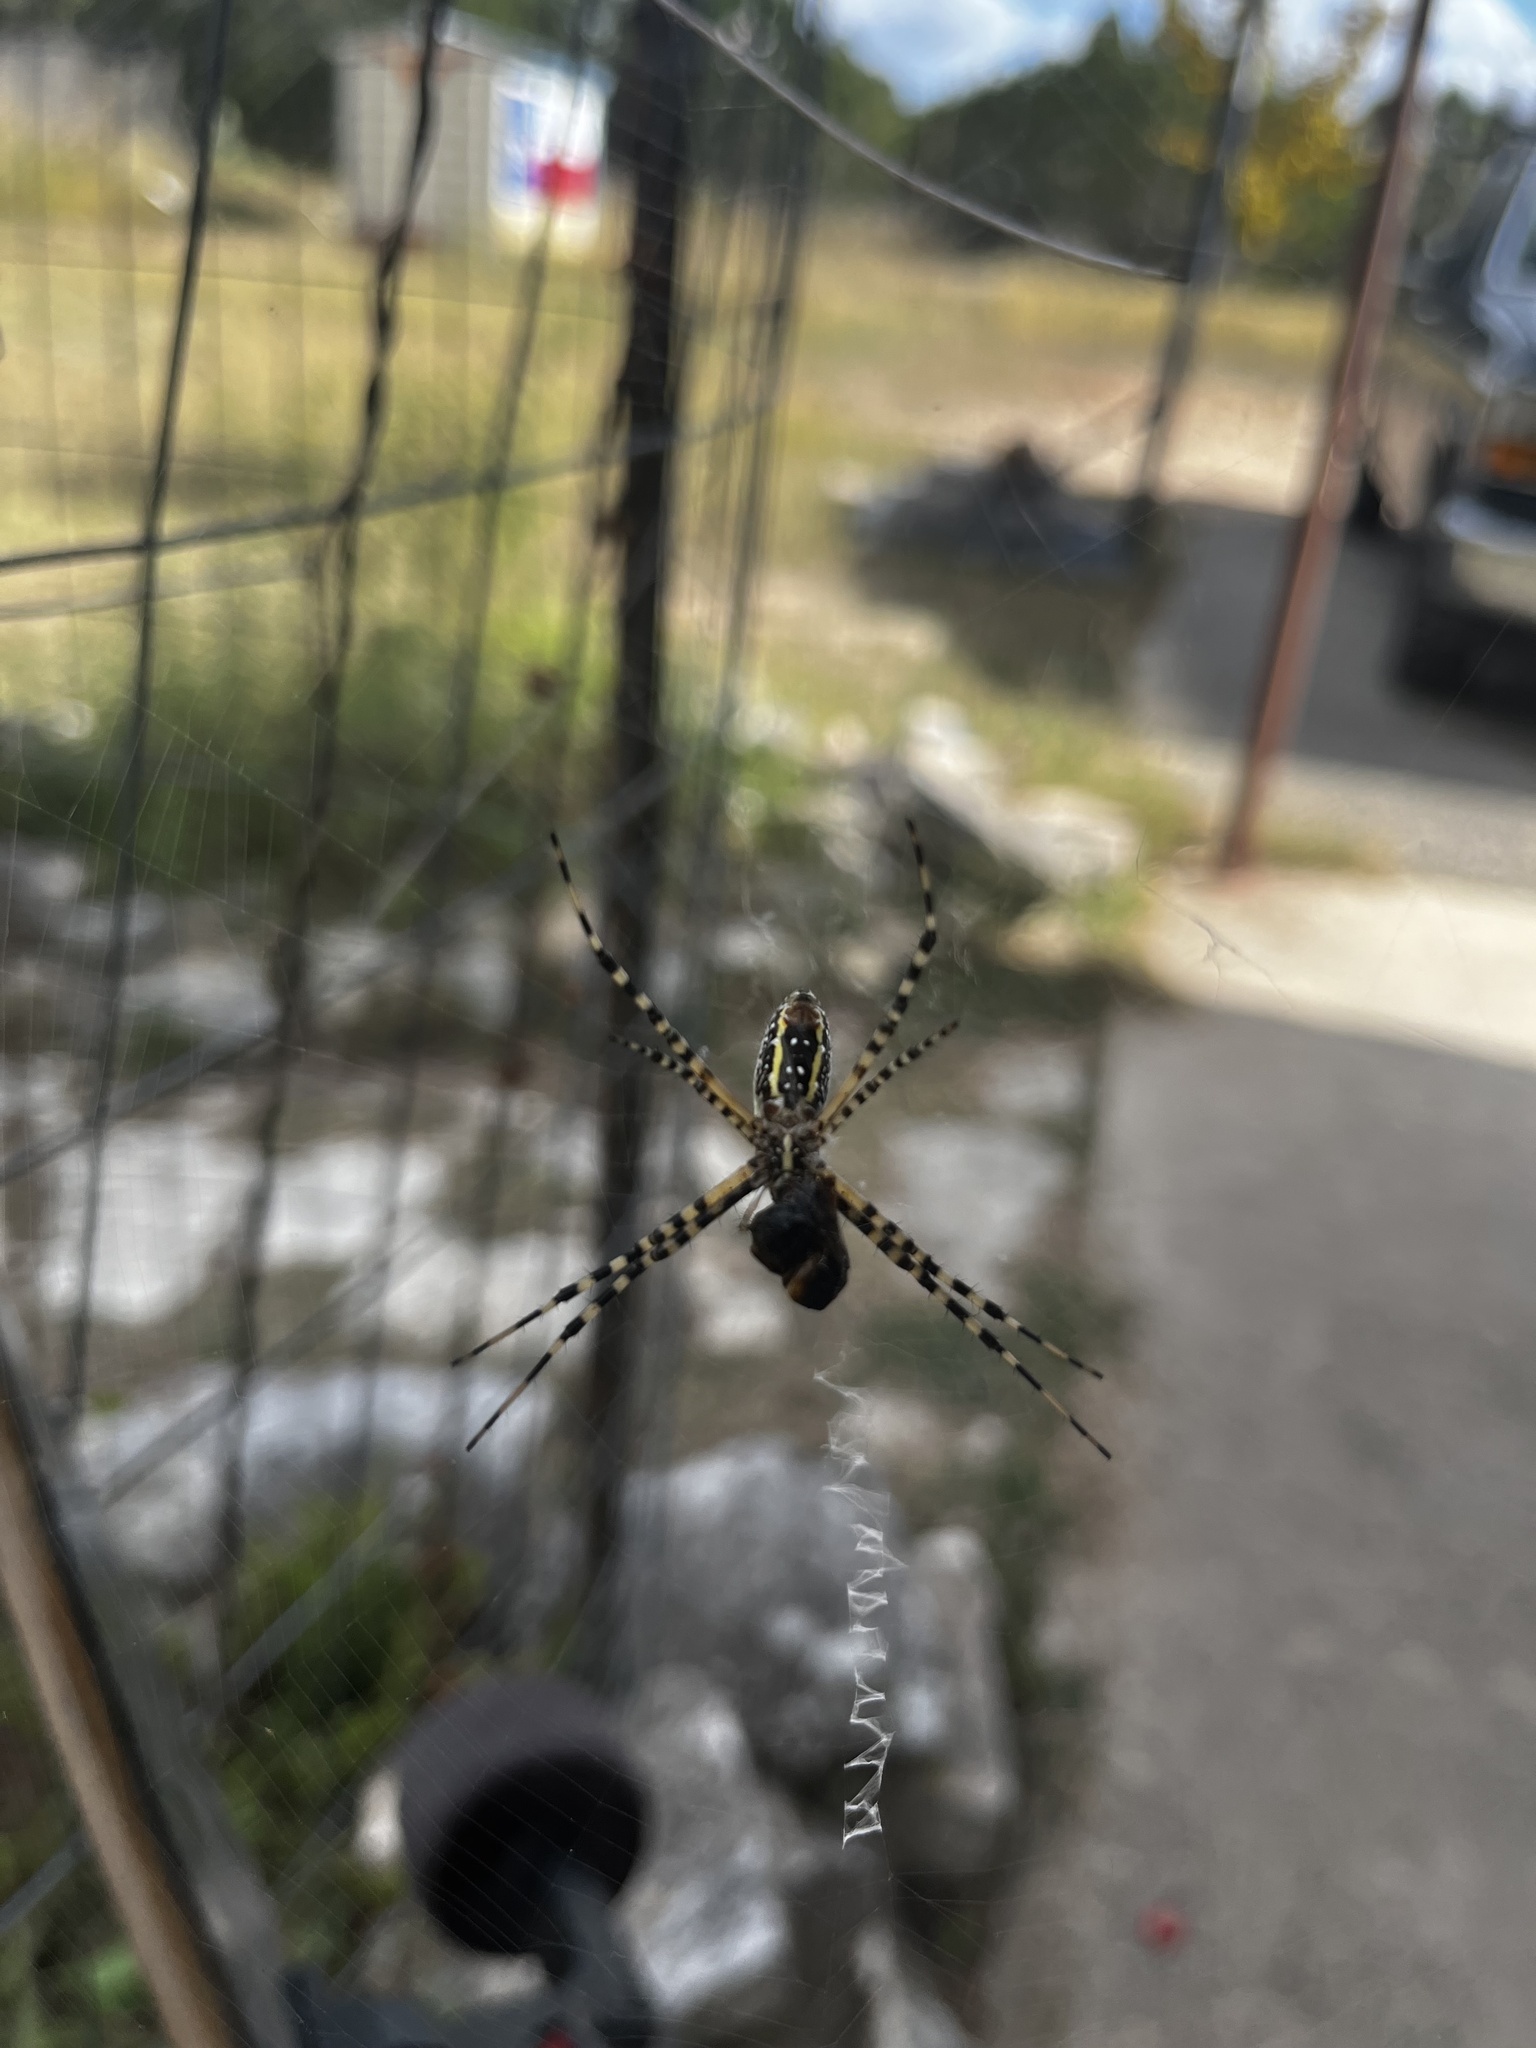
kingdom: Animalia
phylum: Arthropoda
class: Arachnida
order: Araneae
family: Araneidae
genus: Argiope
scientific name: Argiope trifasciata
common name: Banded garden spider
